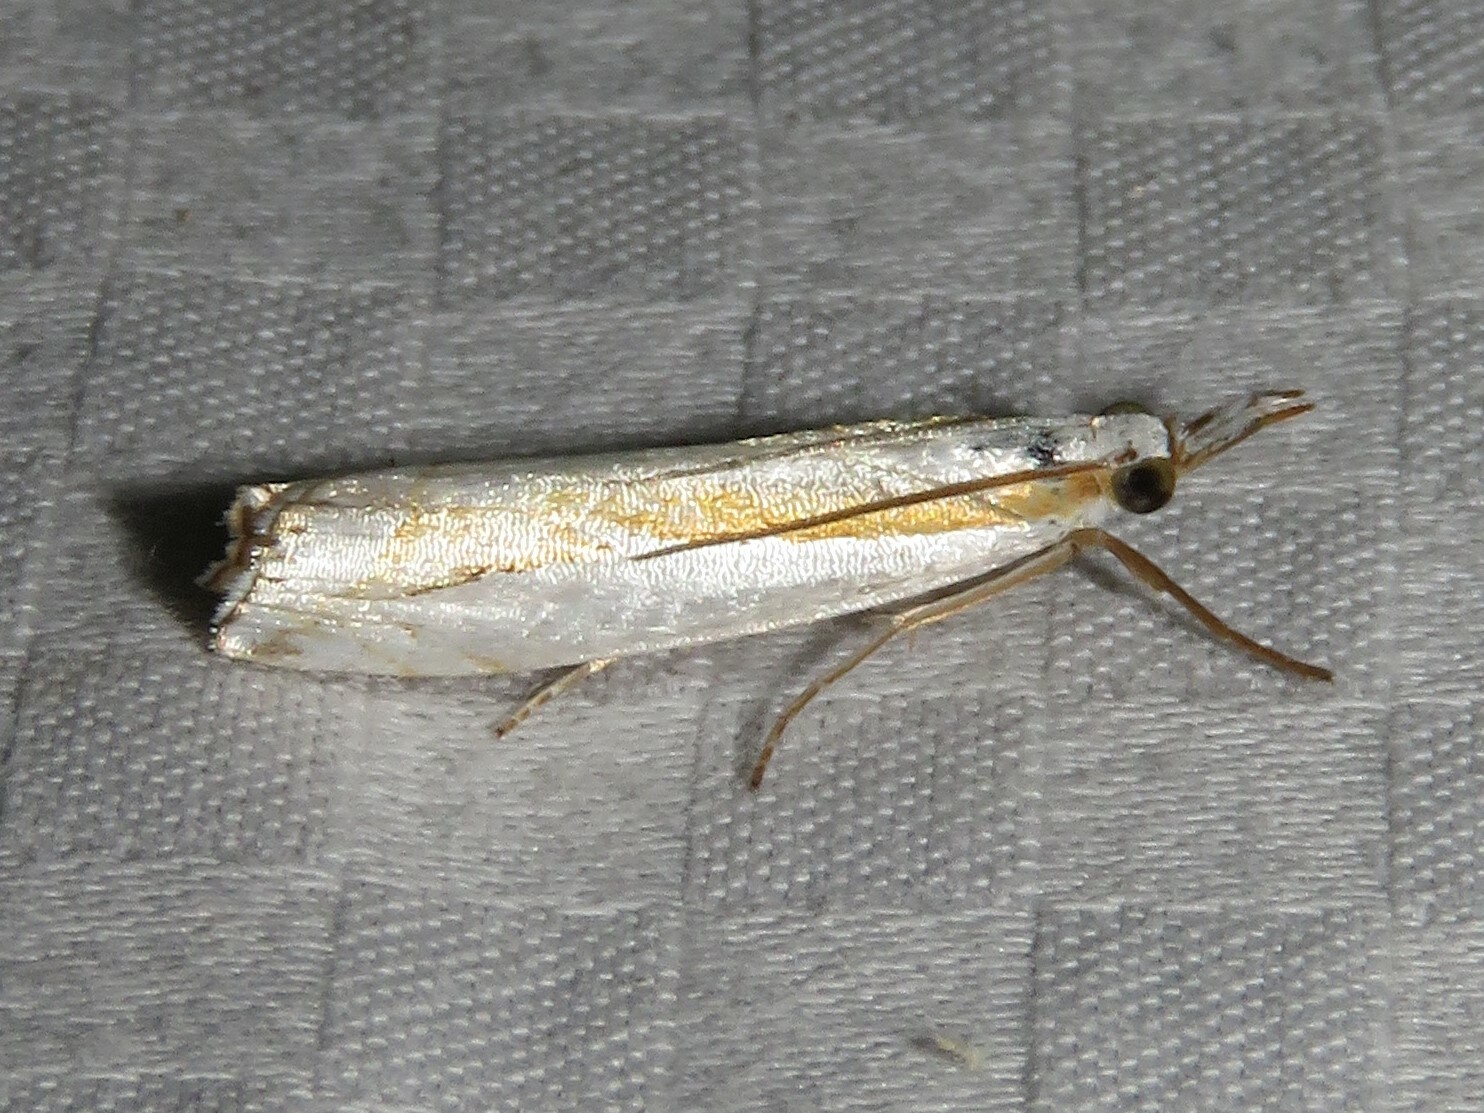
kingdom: Animalia
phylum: Arthropoda
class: Insecta
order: Lepidoptera
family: Crambidae
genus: Crambus
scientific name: Crambus girardellus
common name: Girard's grass-veneer
